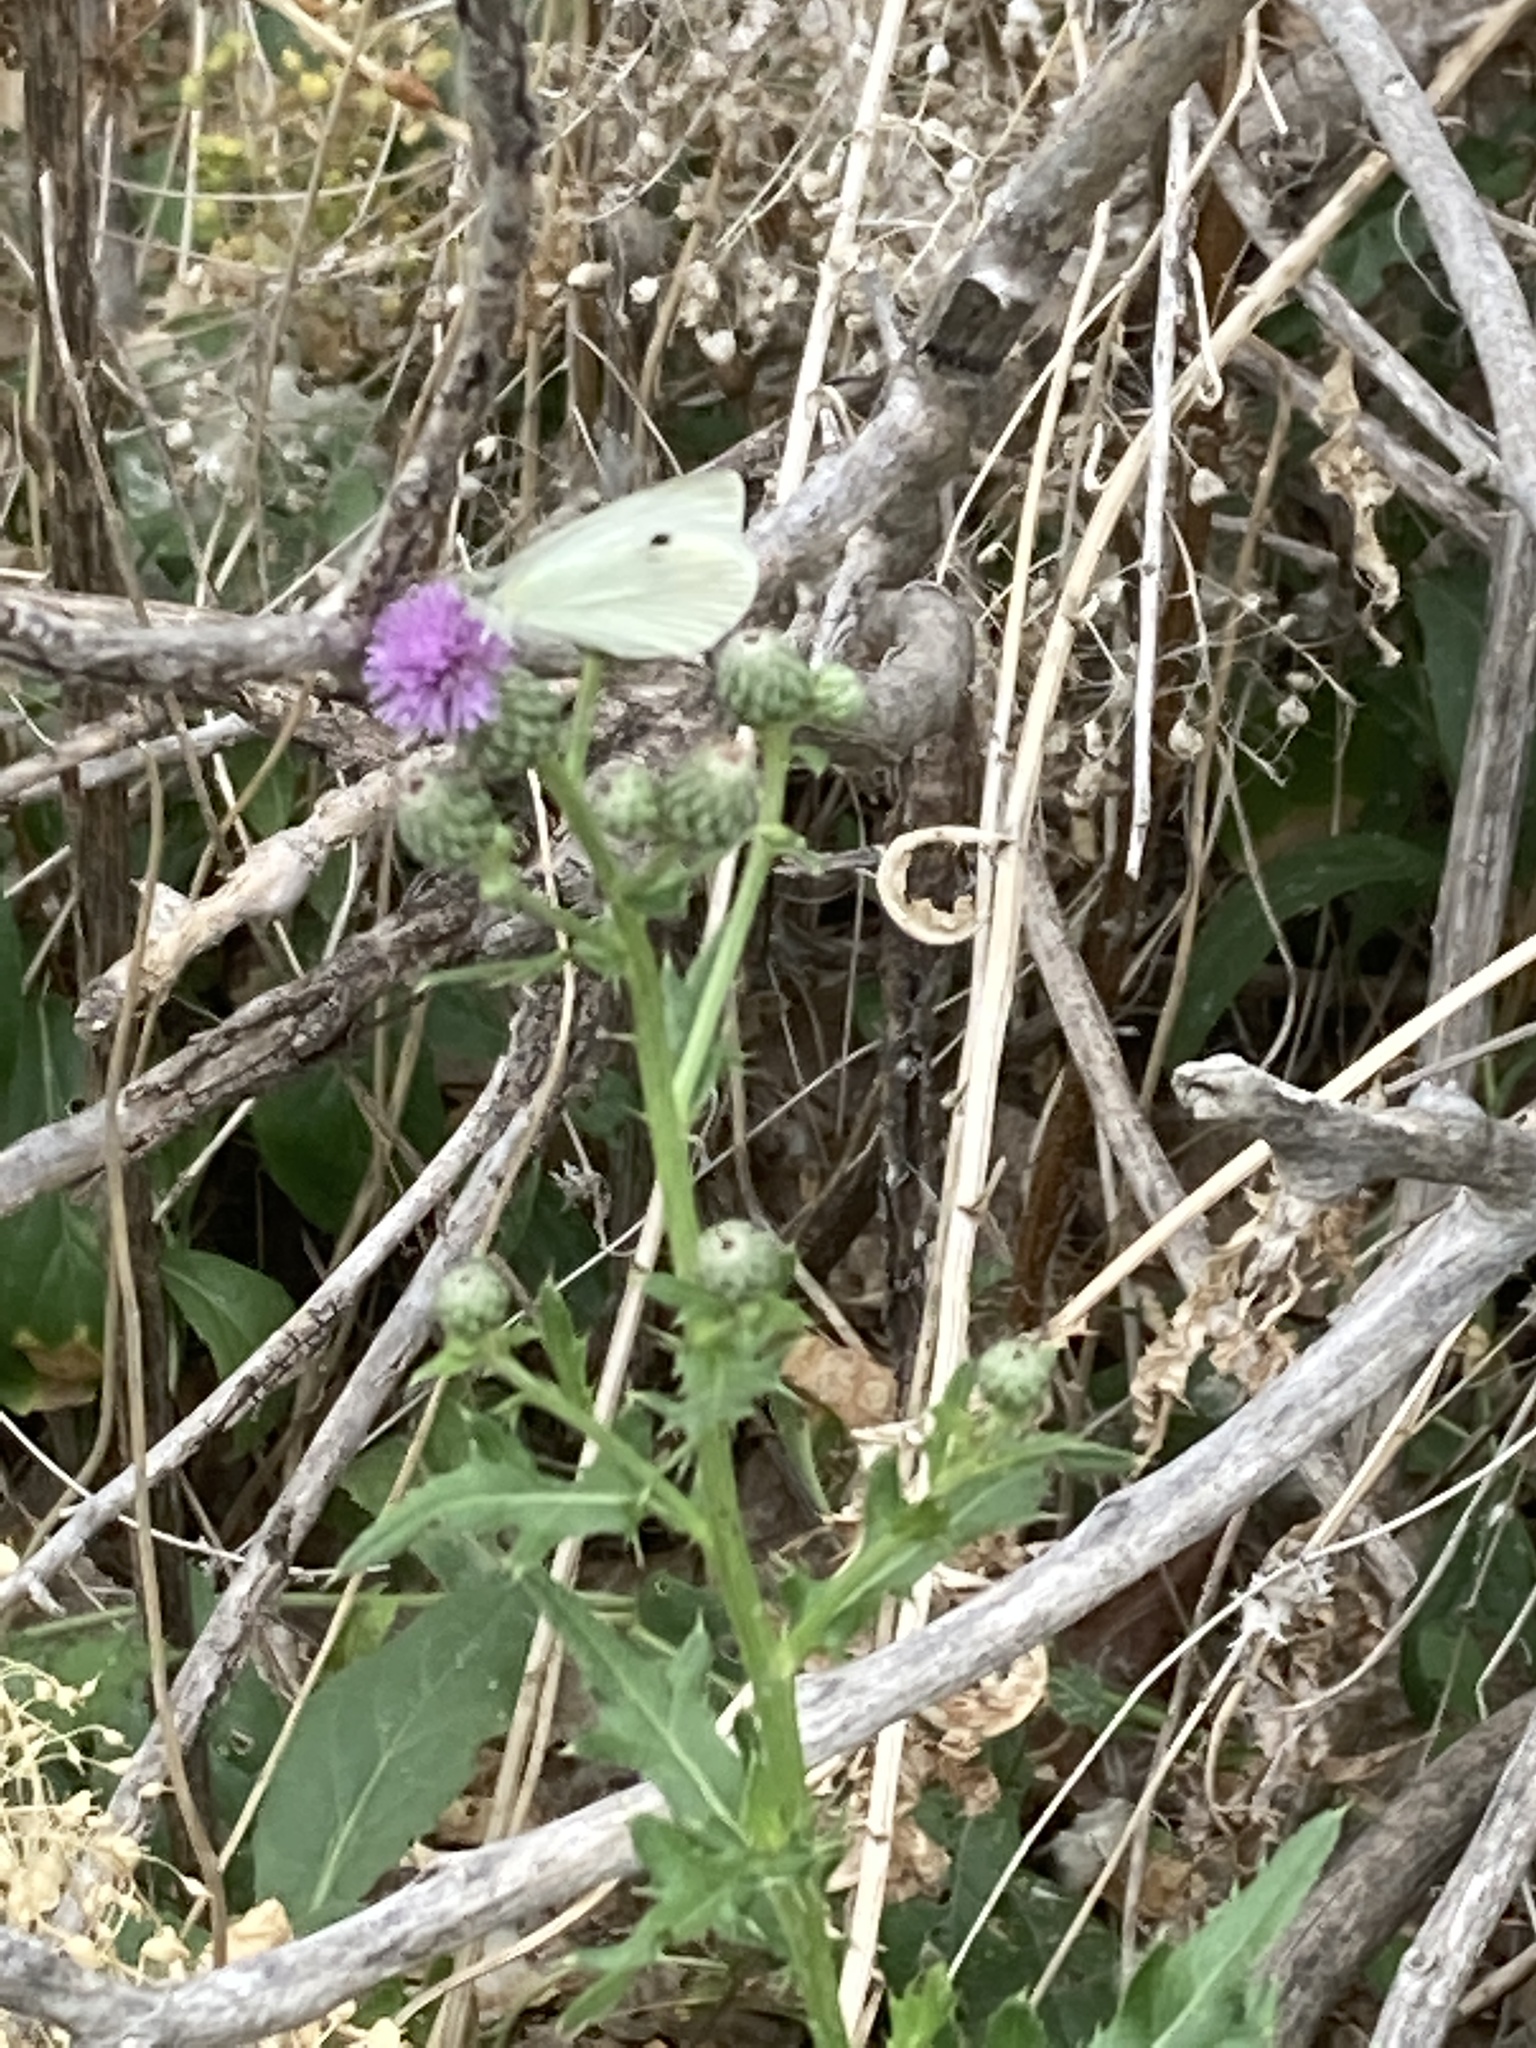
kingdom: Animalia
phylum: Arthropoda
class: Insecta
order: Lepidoptera
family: Pieridae
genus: Pieris
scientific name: Pieris rapae
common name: Small white
